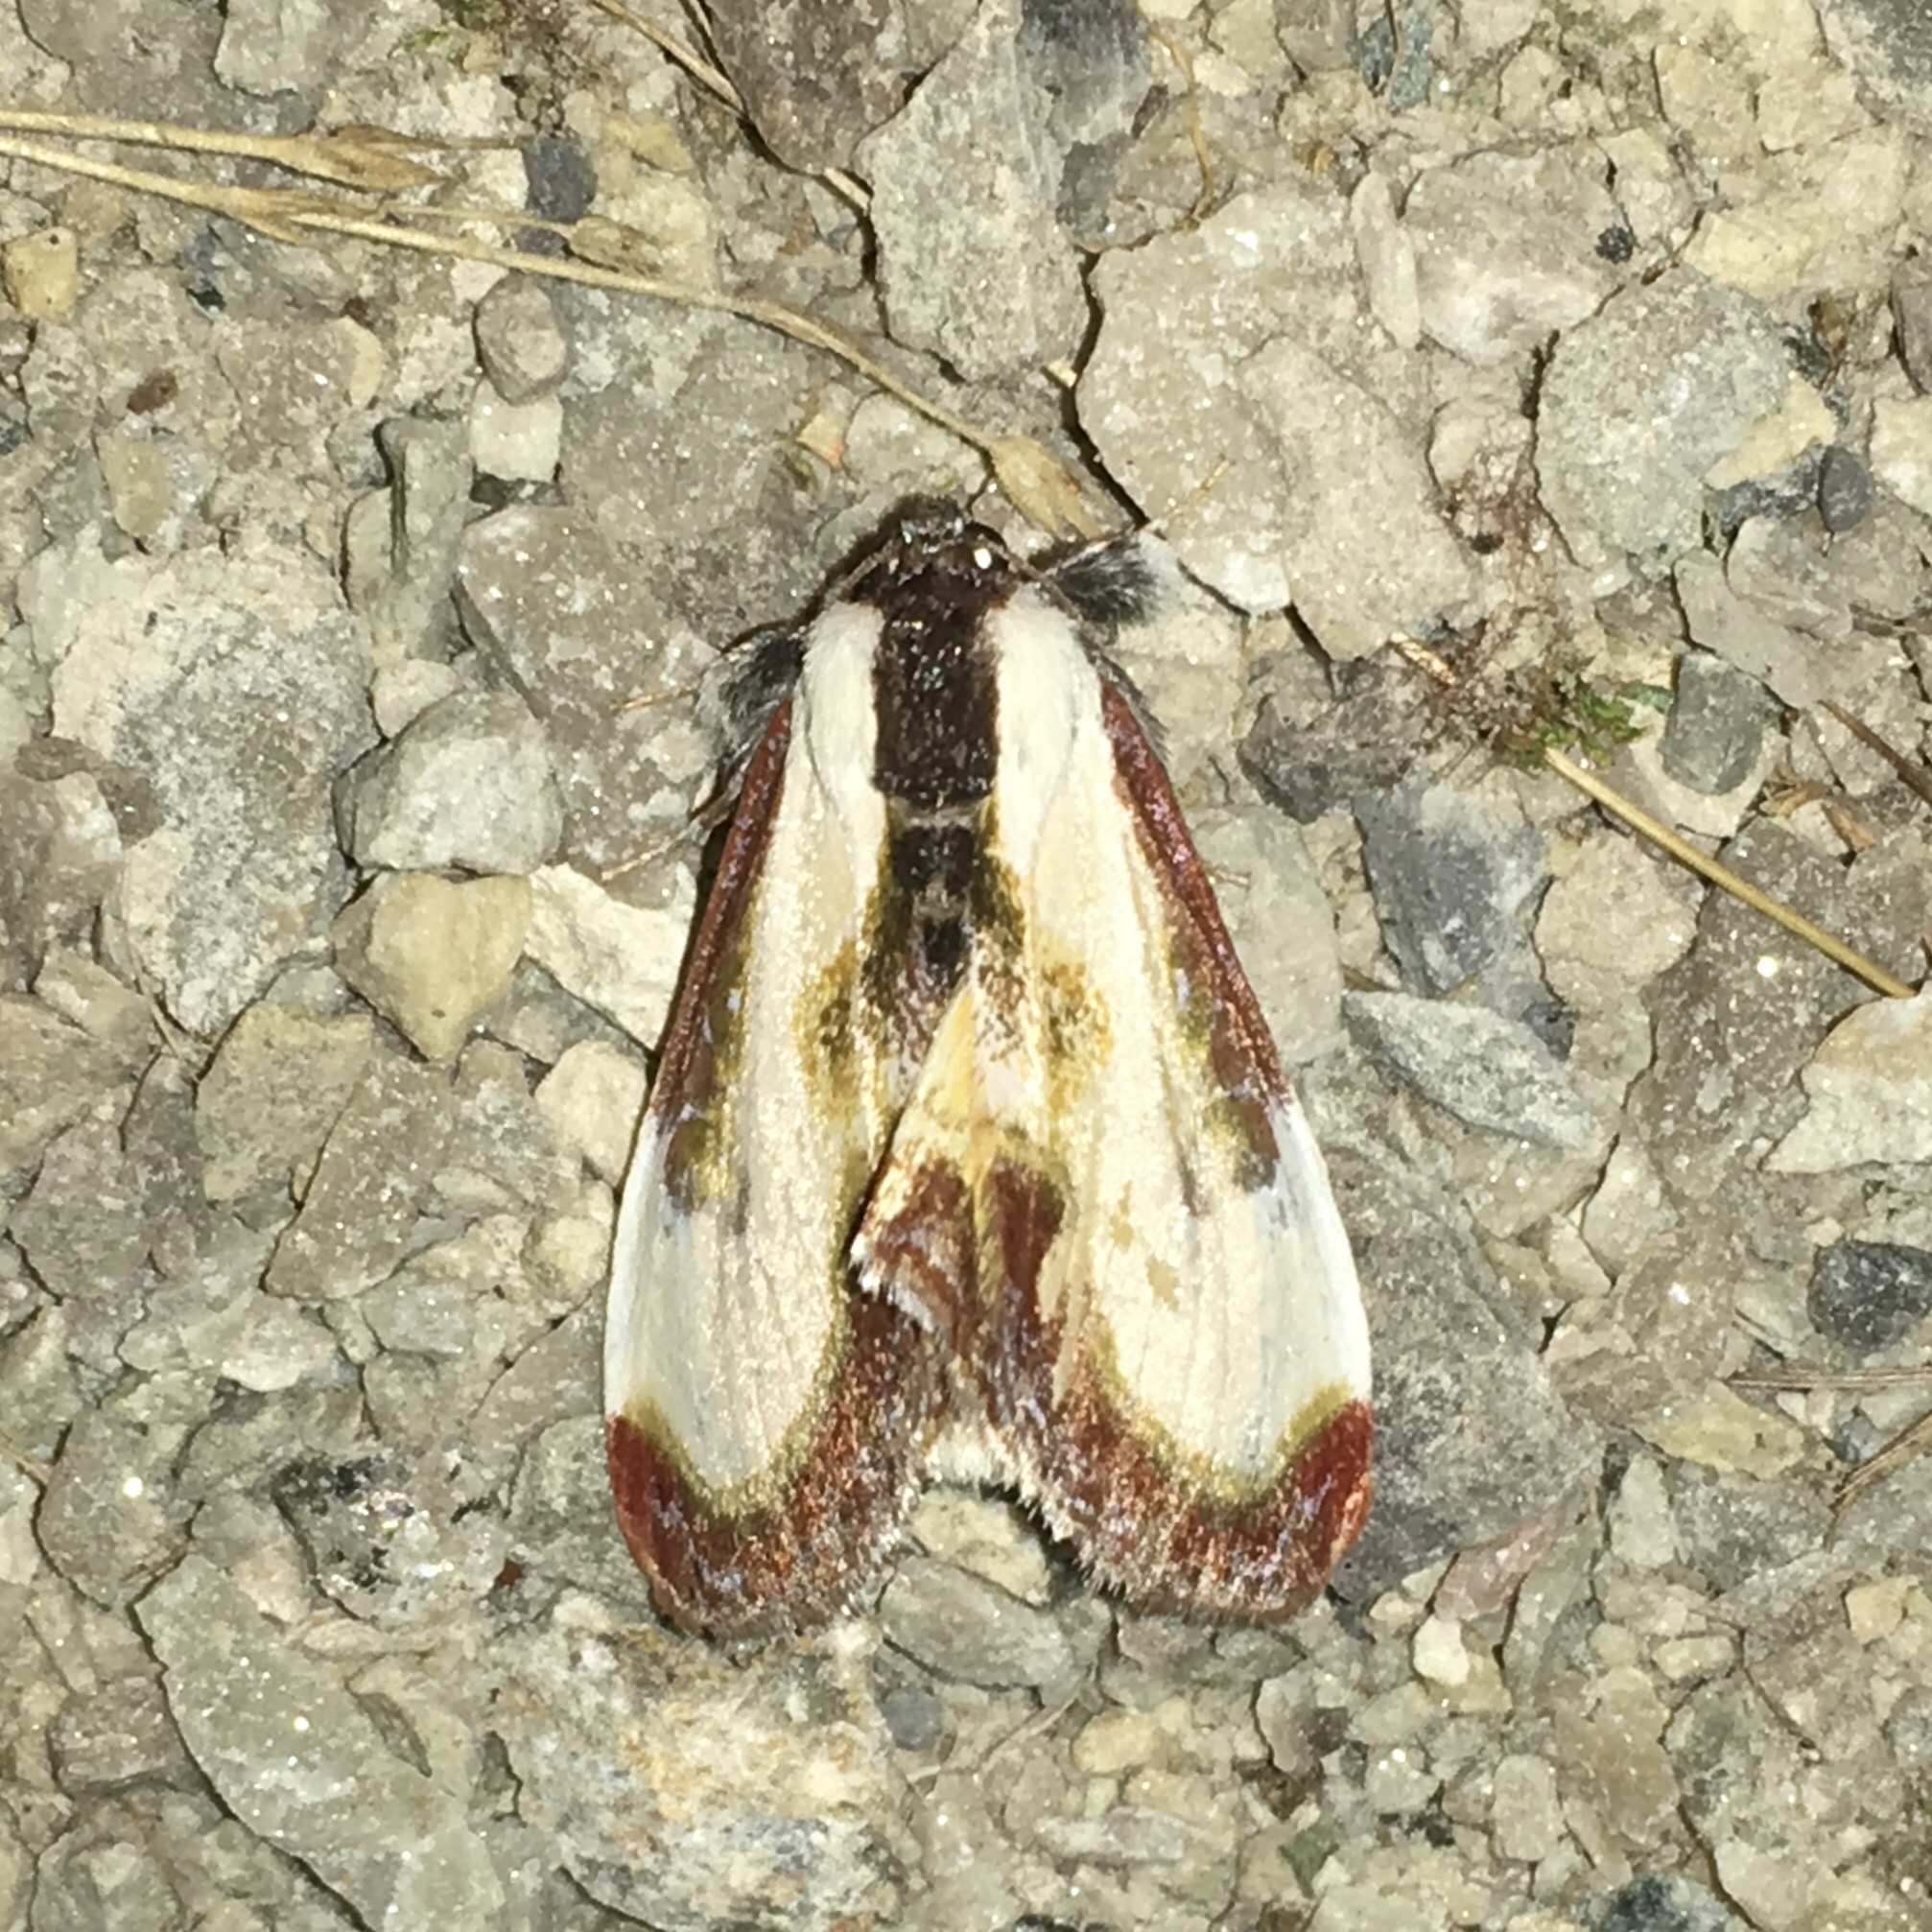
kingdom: Animalia
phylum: Arthropoda
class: Insecta
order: Lepidoptera
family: Noctuidae
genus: Eudryas
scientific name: Eudryas grata
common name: Beautiful wood-nymph
